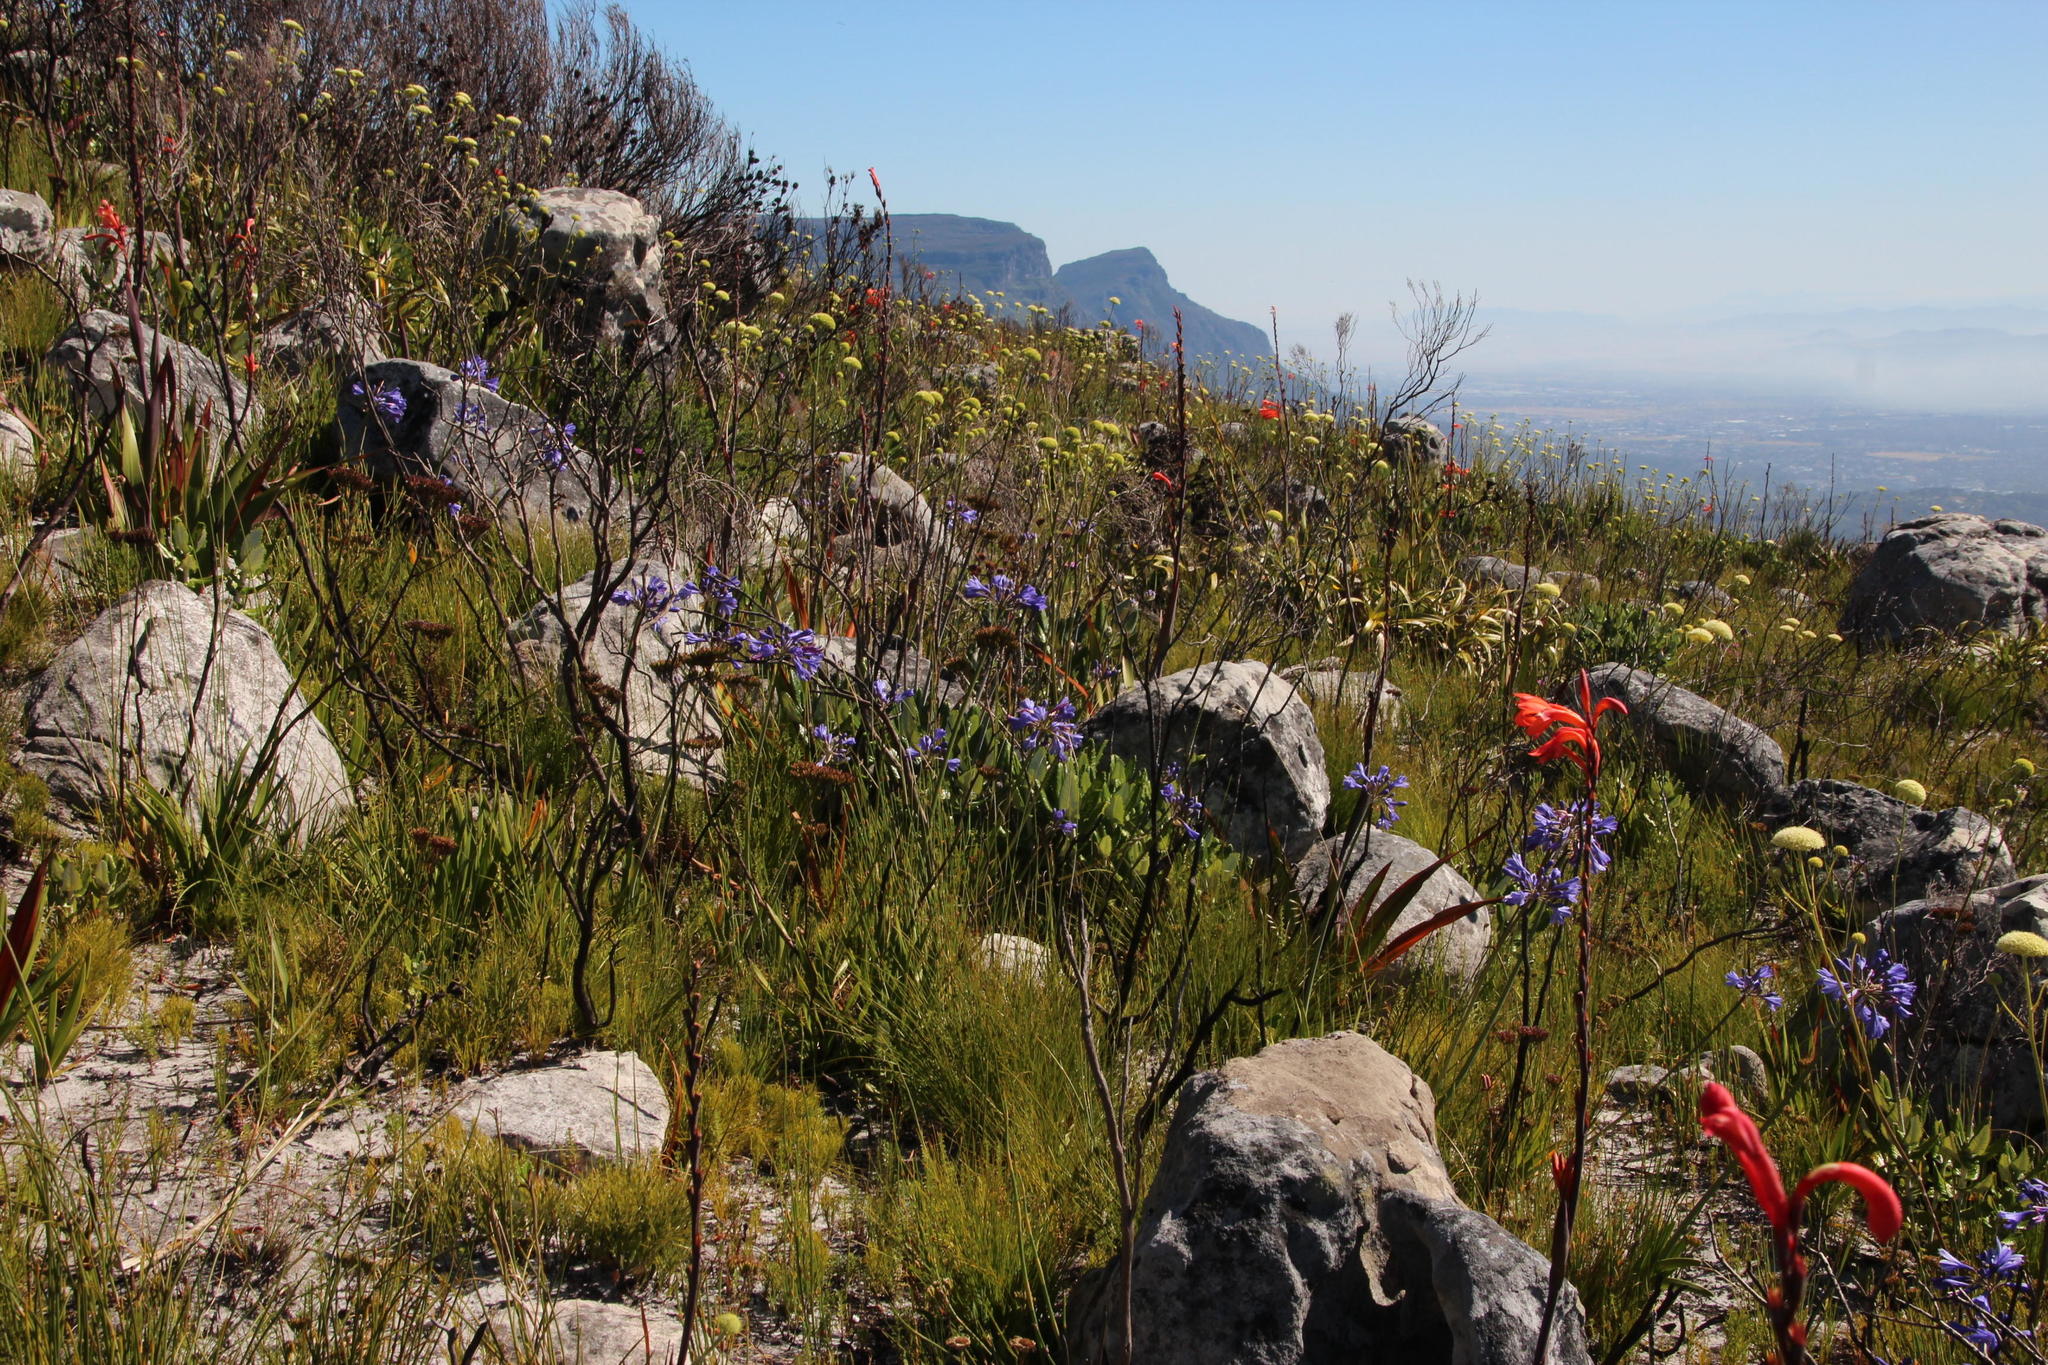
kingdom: Plantae
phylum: Tracheophyta
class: Liliopsida
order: Asparagales
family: Amaryllidaceae
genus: Agapanthus
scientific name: Agapanthus africanus
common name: Lily-of-the-nile
